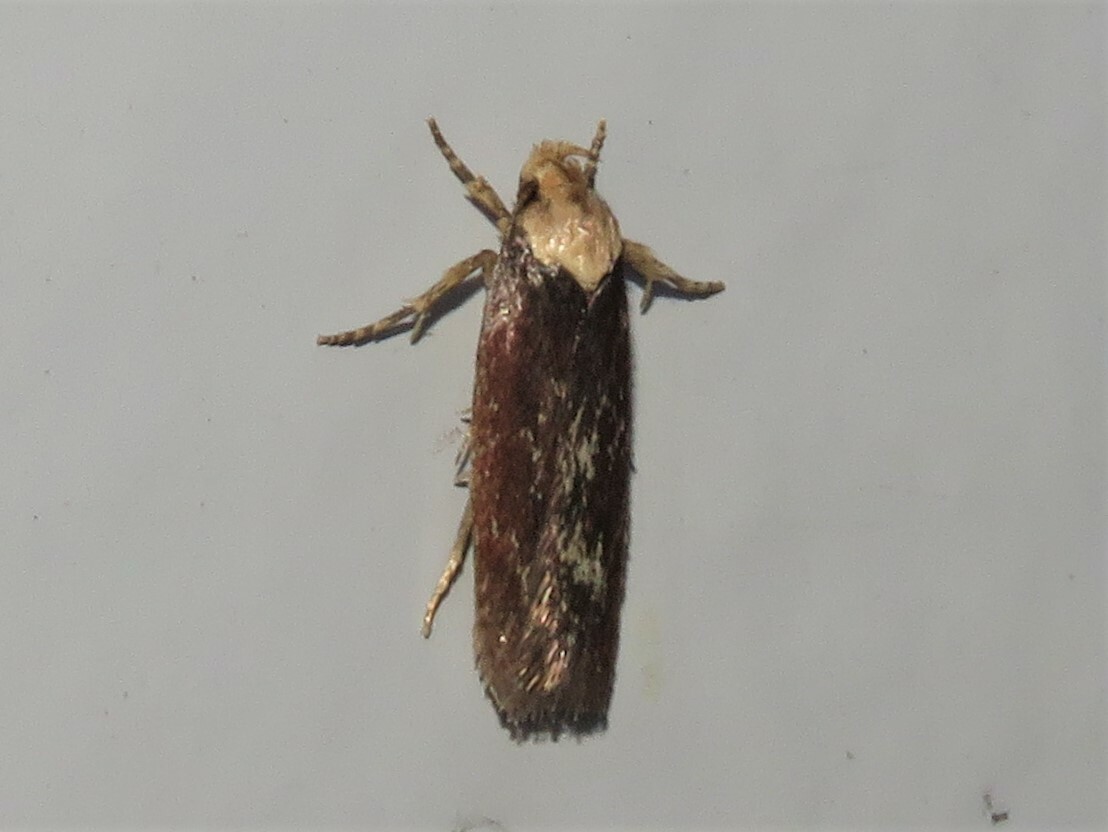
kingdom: Animalia
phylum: Arthropoda
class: Insecta
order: Lepidoptera
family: Depressariidae
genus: Depressaria
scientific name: Depressaria depressana
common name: Lost flat-body
